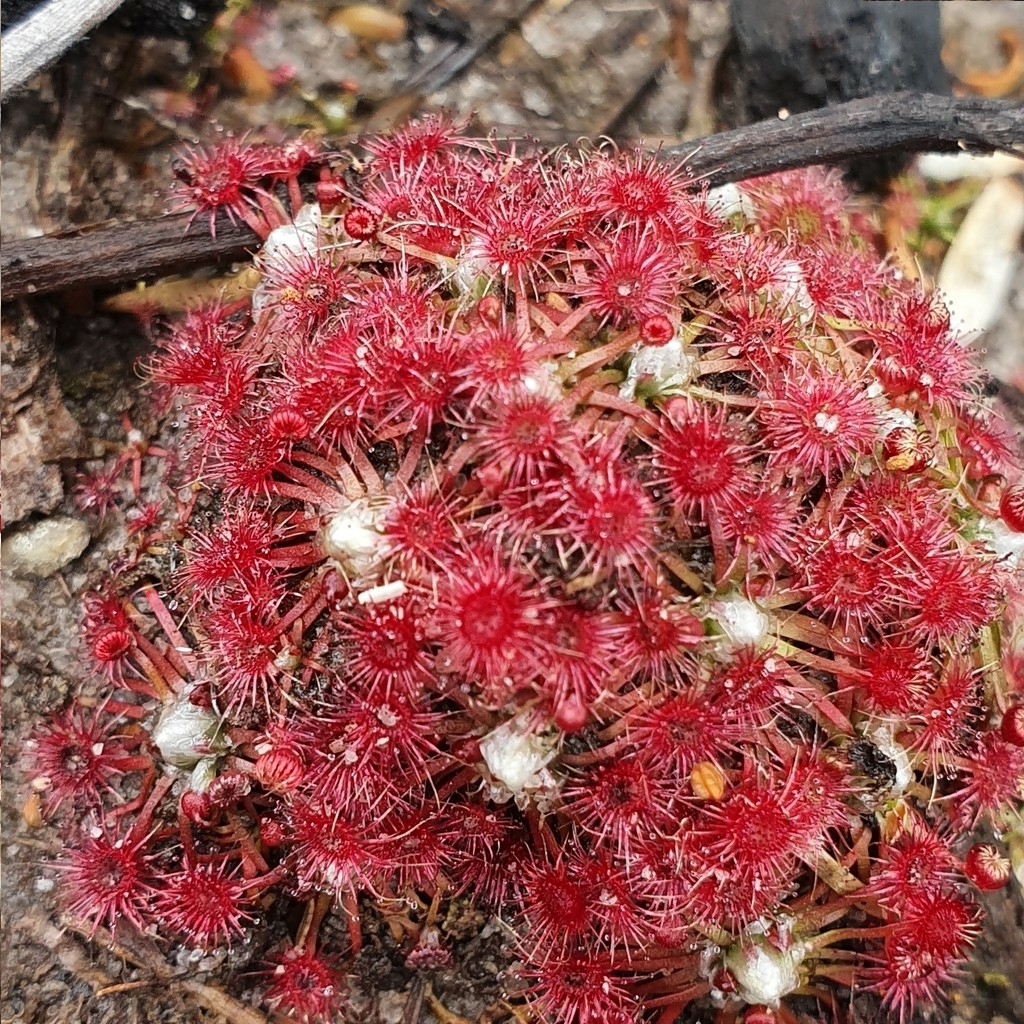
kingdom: Plantae
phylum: Tracheophyta
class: Magnoliopsida
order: Caryophyllales
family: Droseraceae
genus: Drosera
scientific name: Drosera pygmaea
